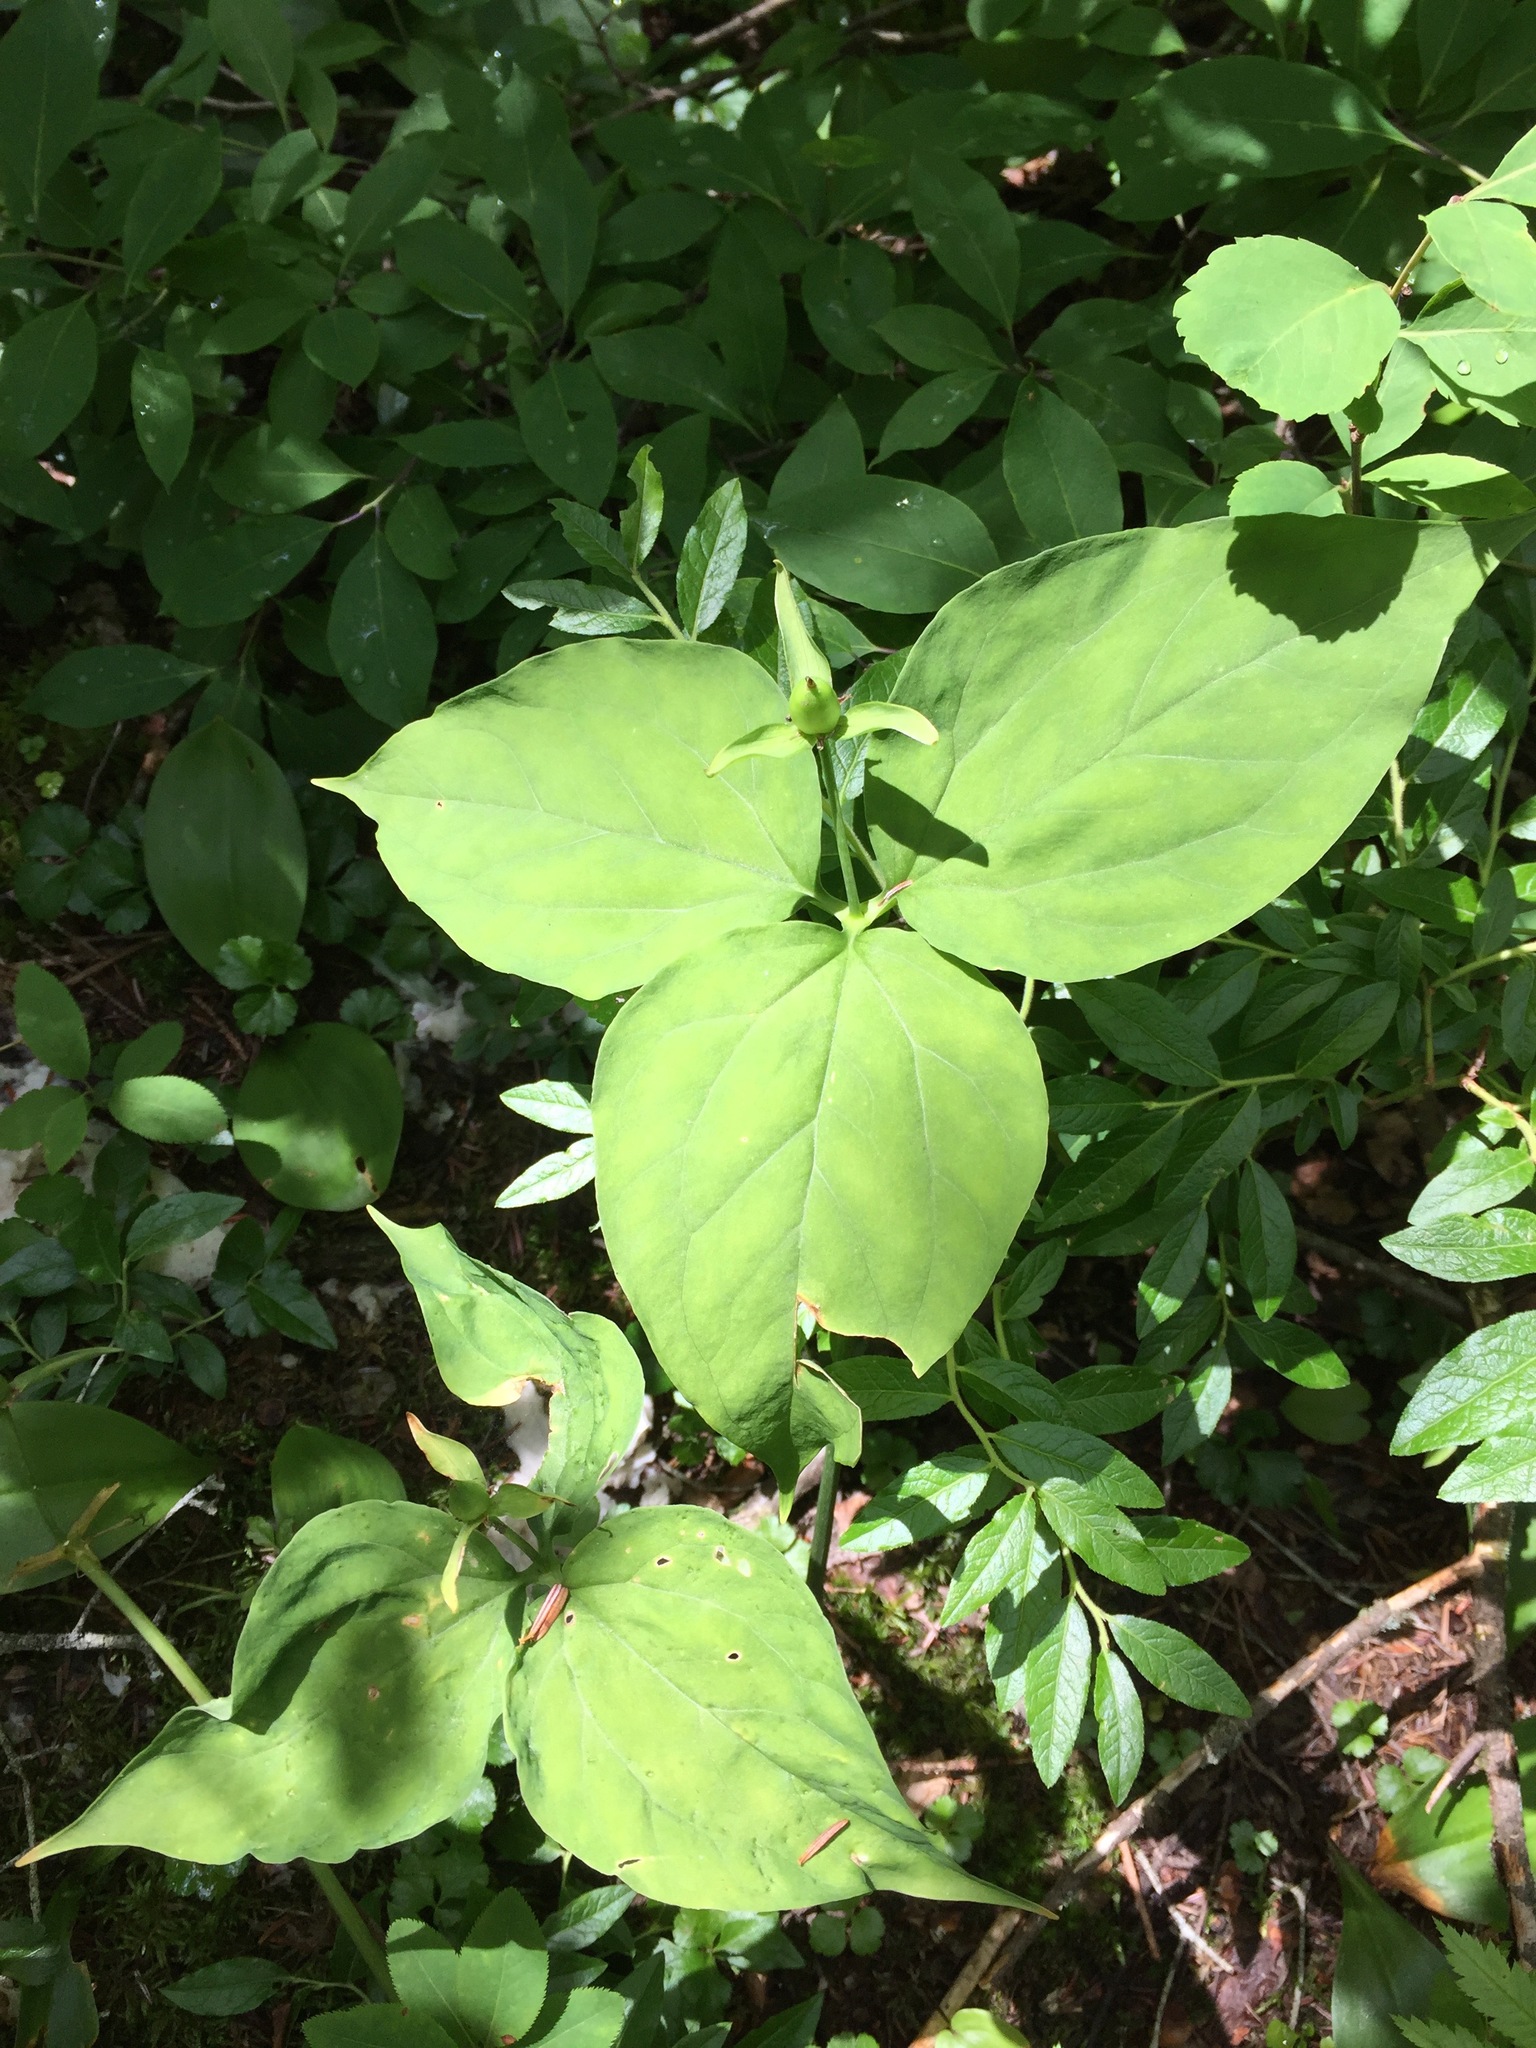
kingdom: Plantae
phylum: Tracheophyta
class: Liliopsida
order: Liliales
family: Melanthiaceae
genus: Trillium
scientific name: Trillium undulatum
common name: Paint trillium
